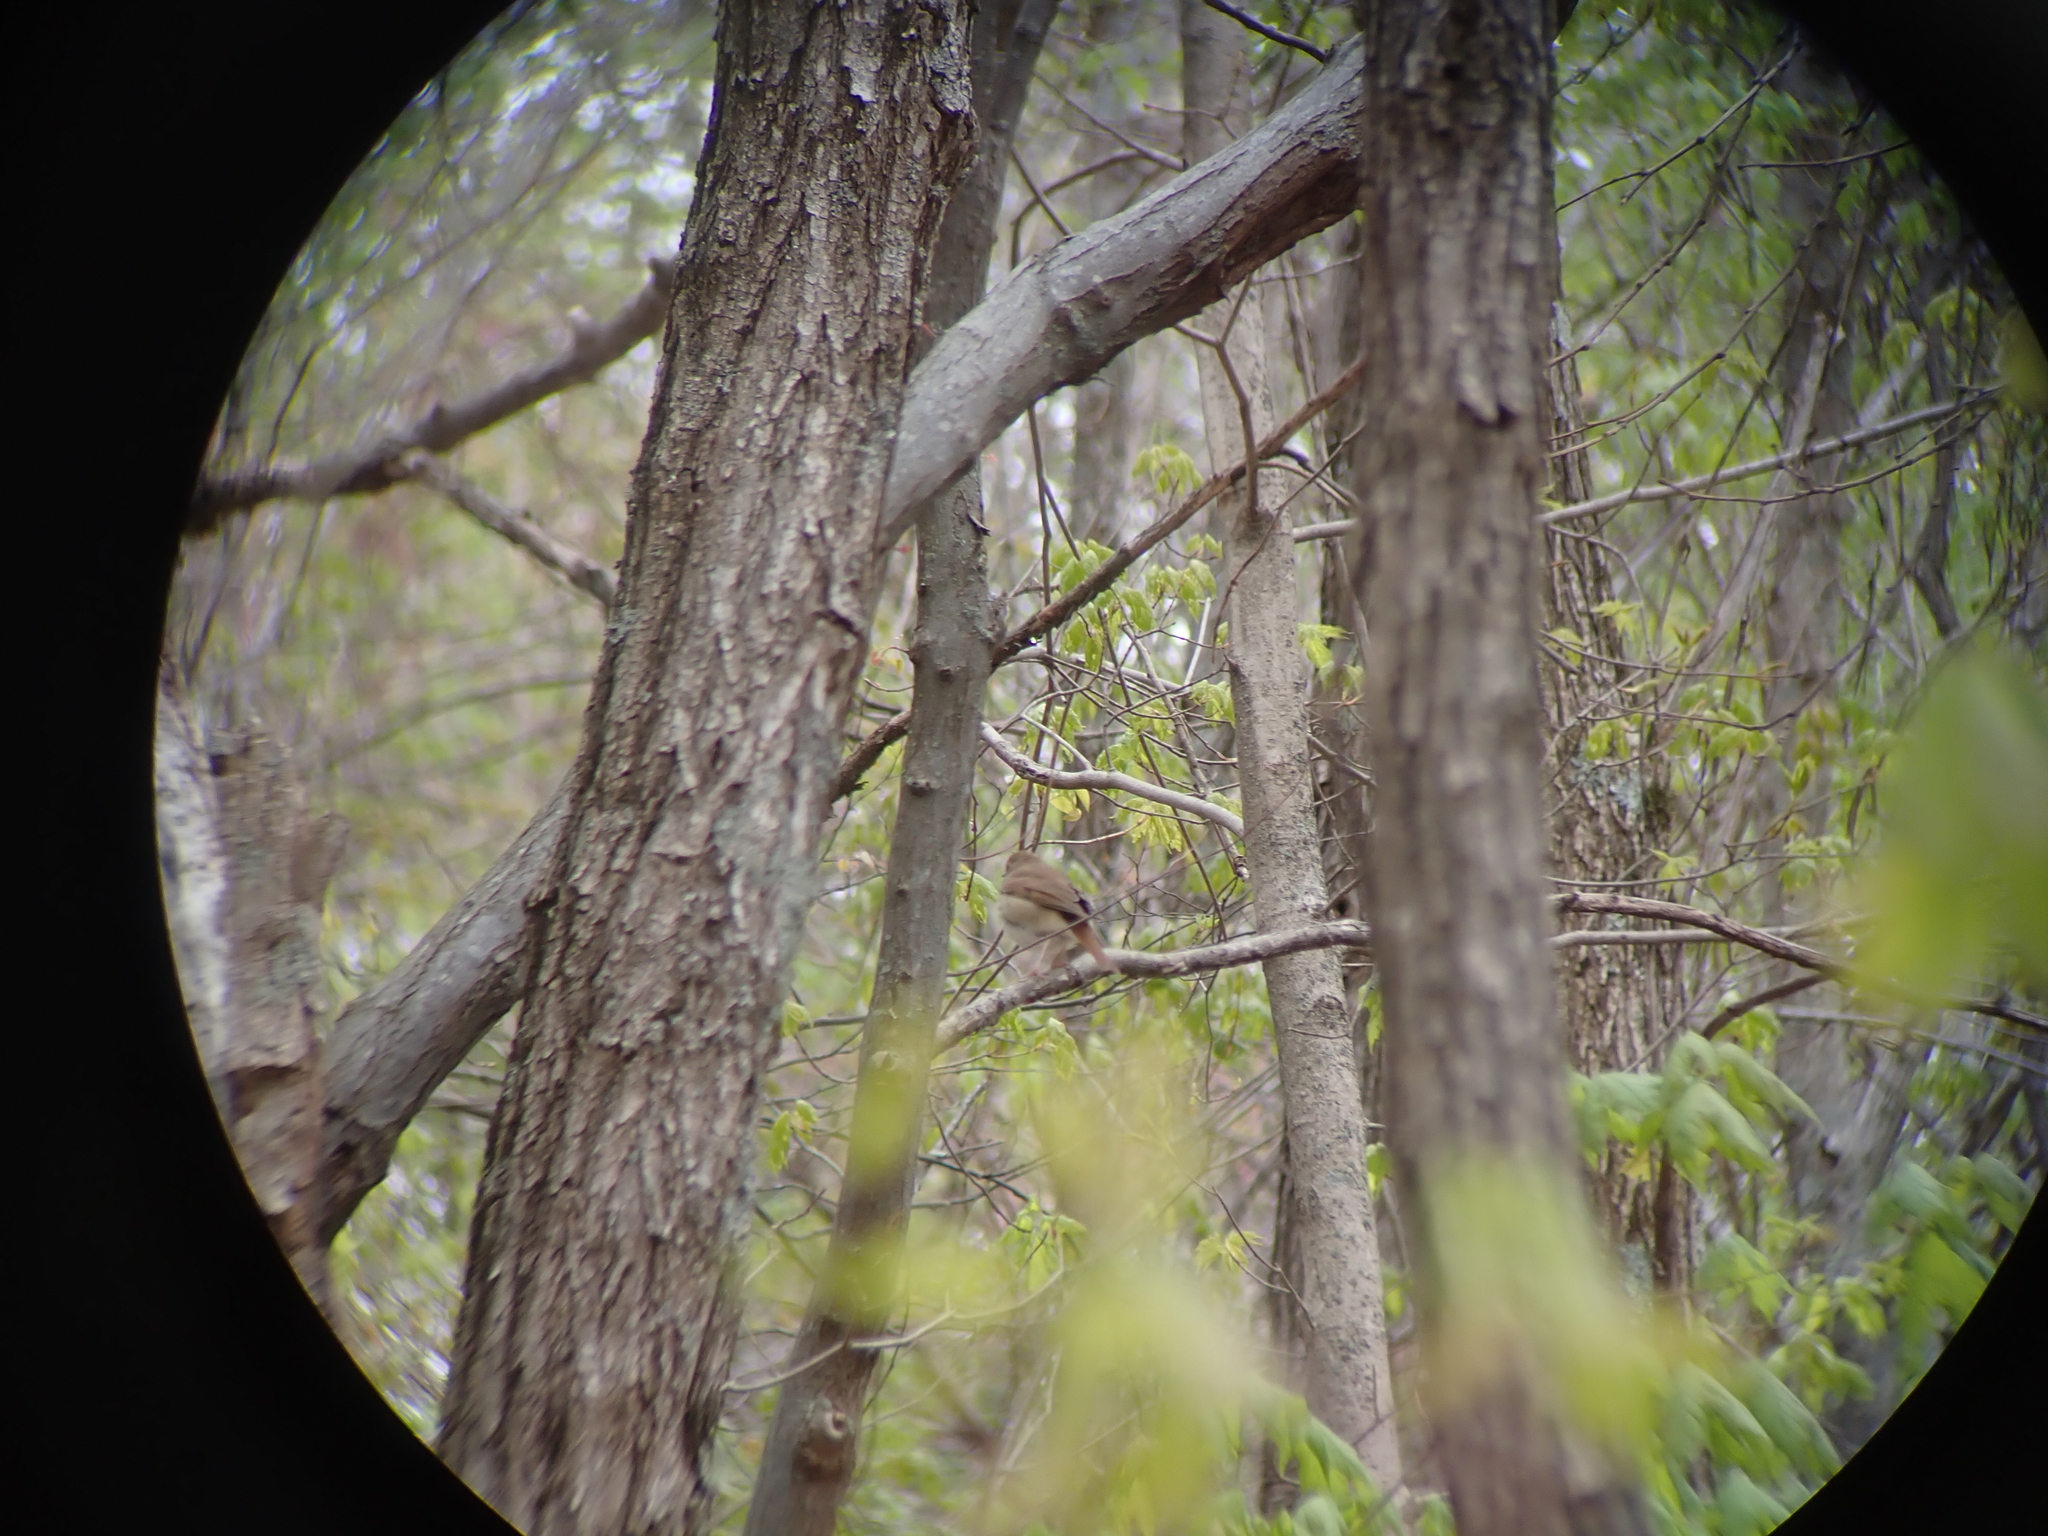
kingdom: Animalia
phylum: Chordata
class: Aves
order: Passeriformes
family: Turdidae
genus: Catharus
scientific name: Catharus guttatus
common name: Hermit thrush
